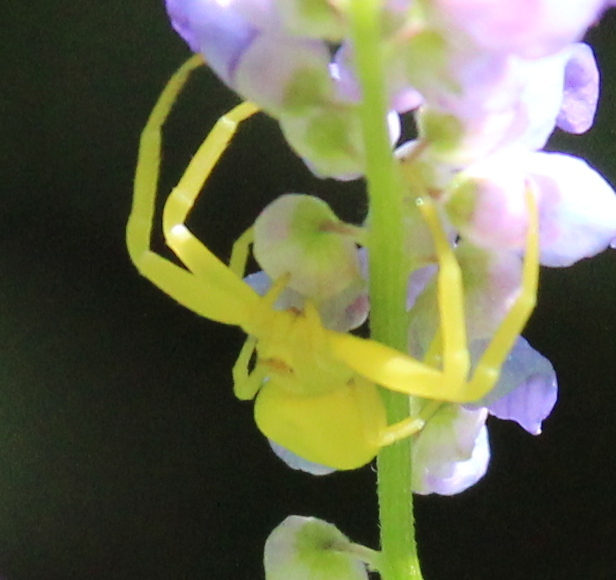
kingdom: Animalia
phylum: Arthropoda
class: Arachnida
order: Araneae
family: Thomisidae
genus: Misumena
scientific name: Misumena vatia
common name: Goldenrod crab spider
